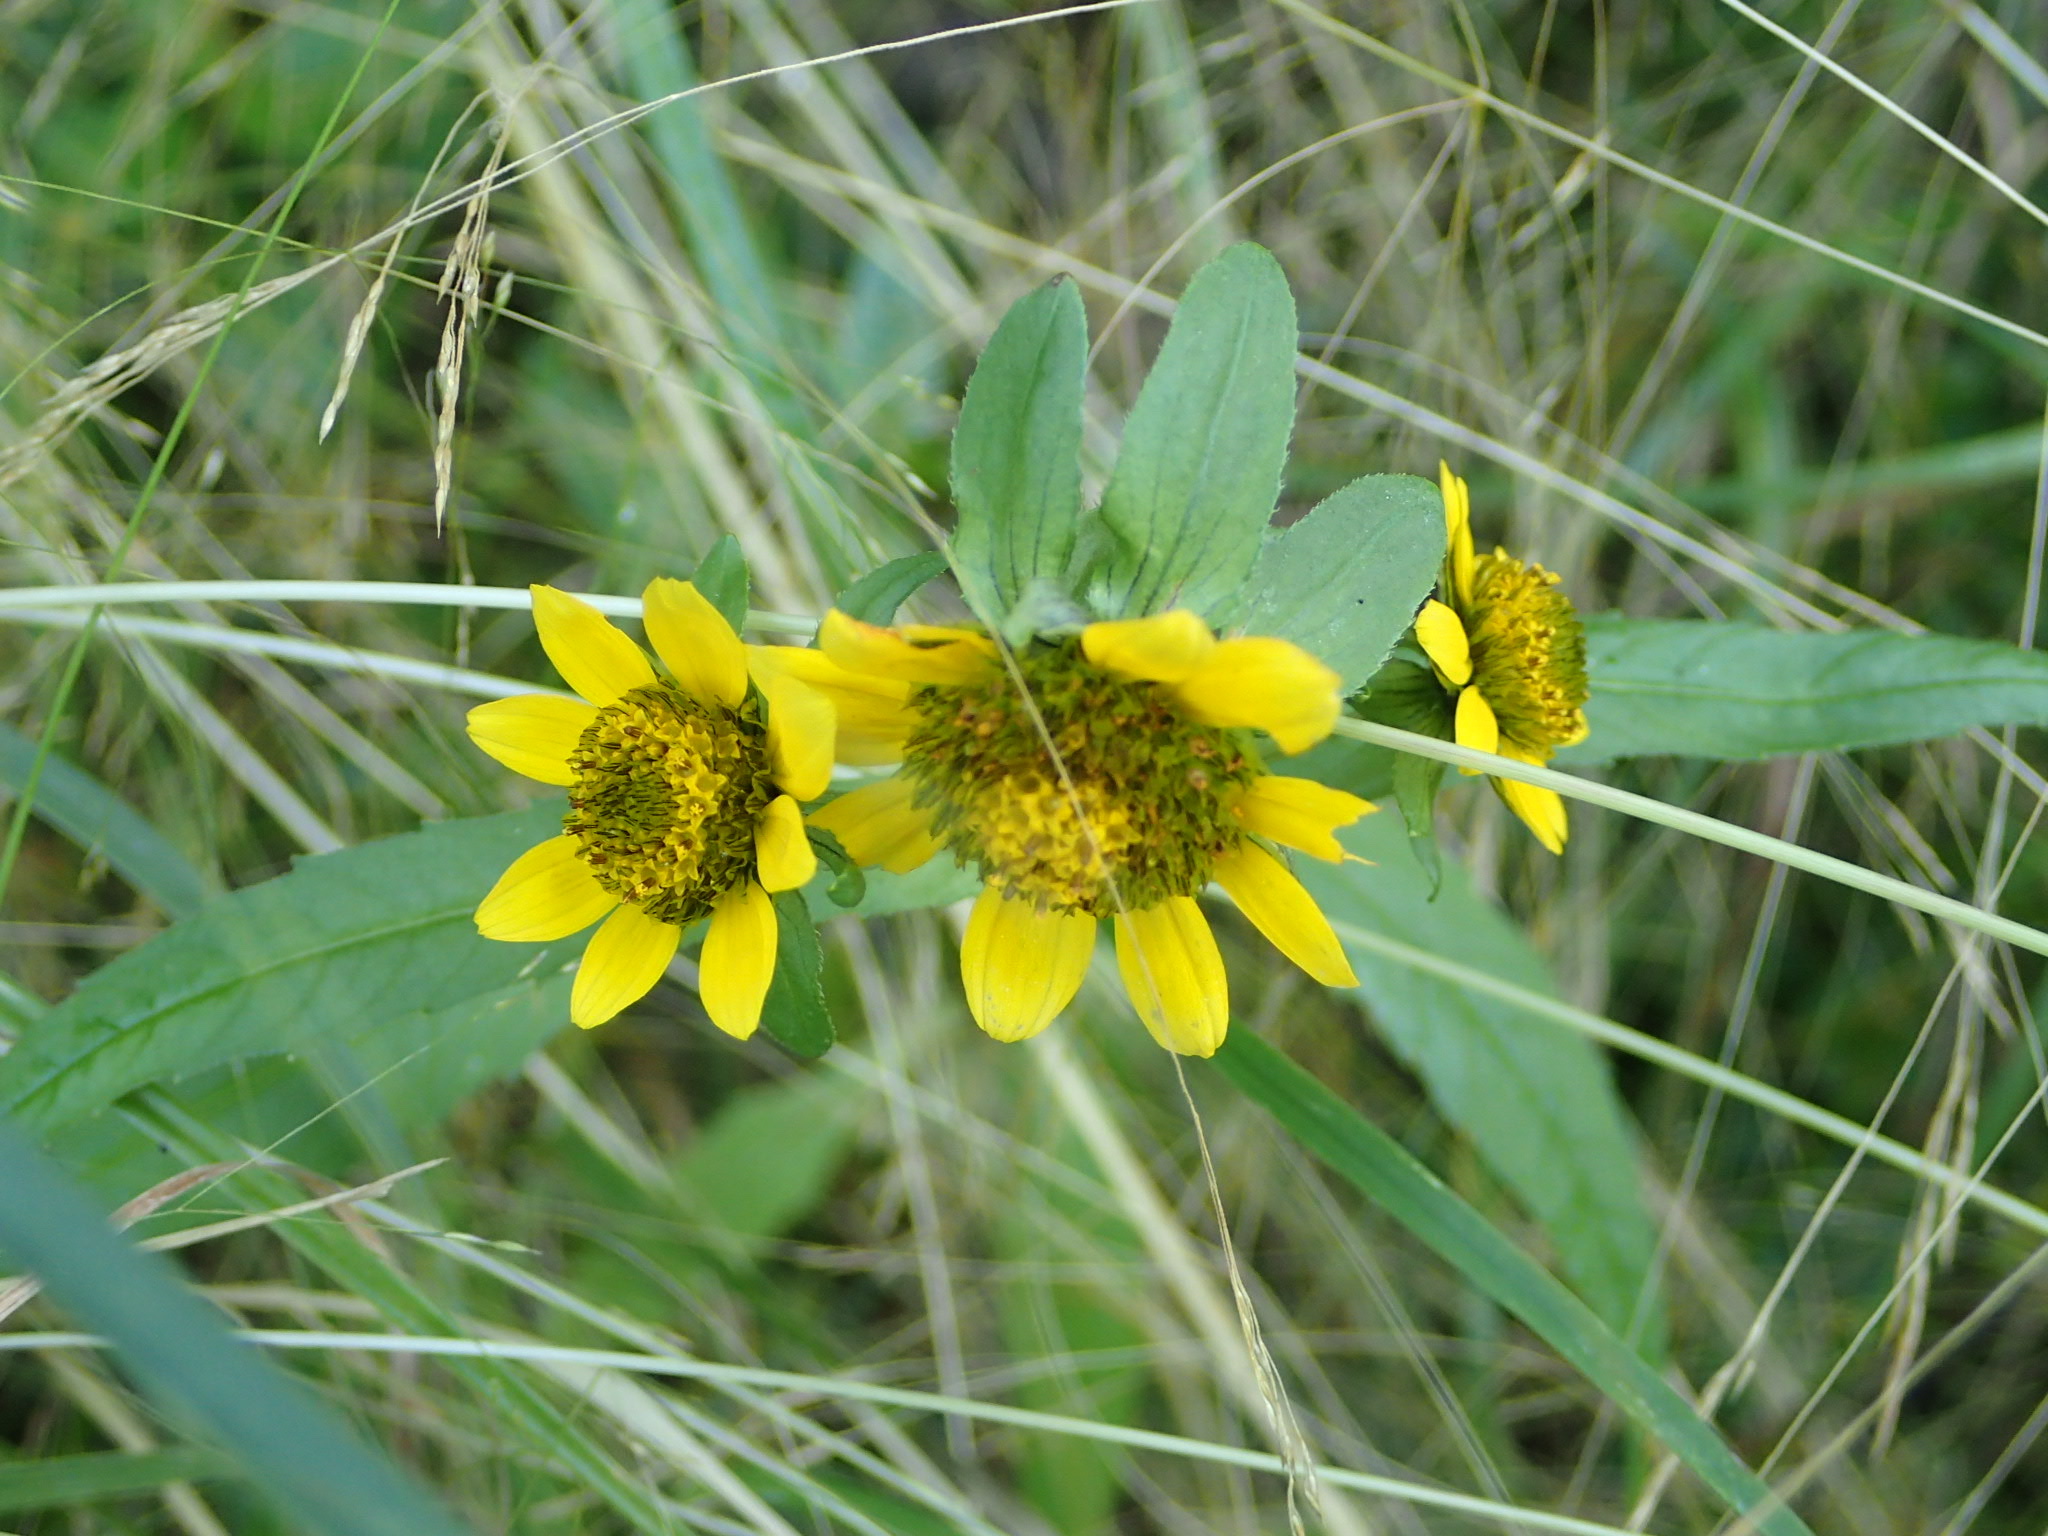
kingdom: Plantae
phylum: Tracheophyta
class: Magnoliopsida
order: Asterales
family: Asteraceae
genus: Bidens
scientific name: Bidens cernua
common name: Nodding bur-marigold
